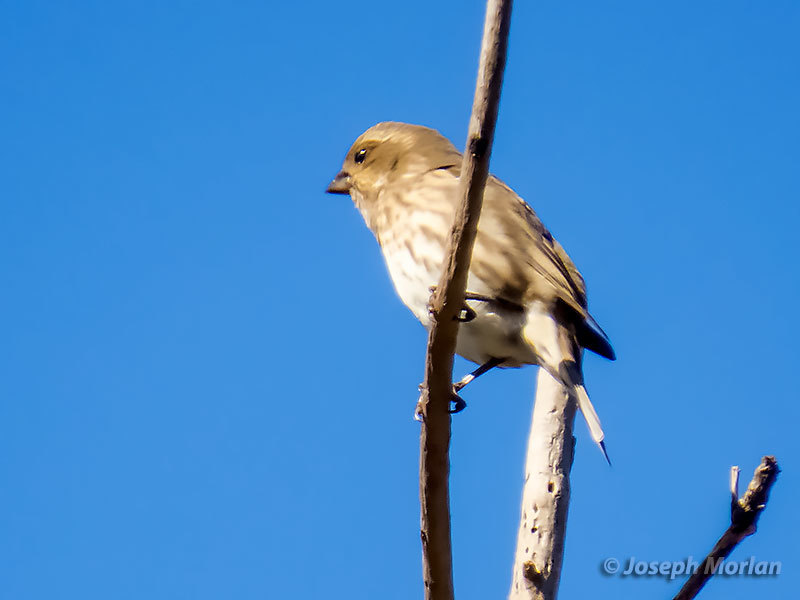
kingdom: Animalia
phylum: Chordata
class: Aves
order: Passeriformes
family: Fringillidae
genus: Haemorhous
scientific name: Haemorhous purpureus
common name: Purple finch
